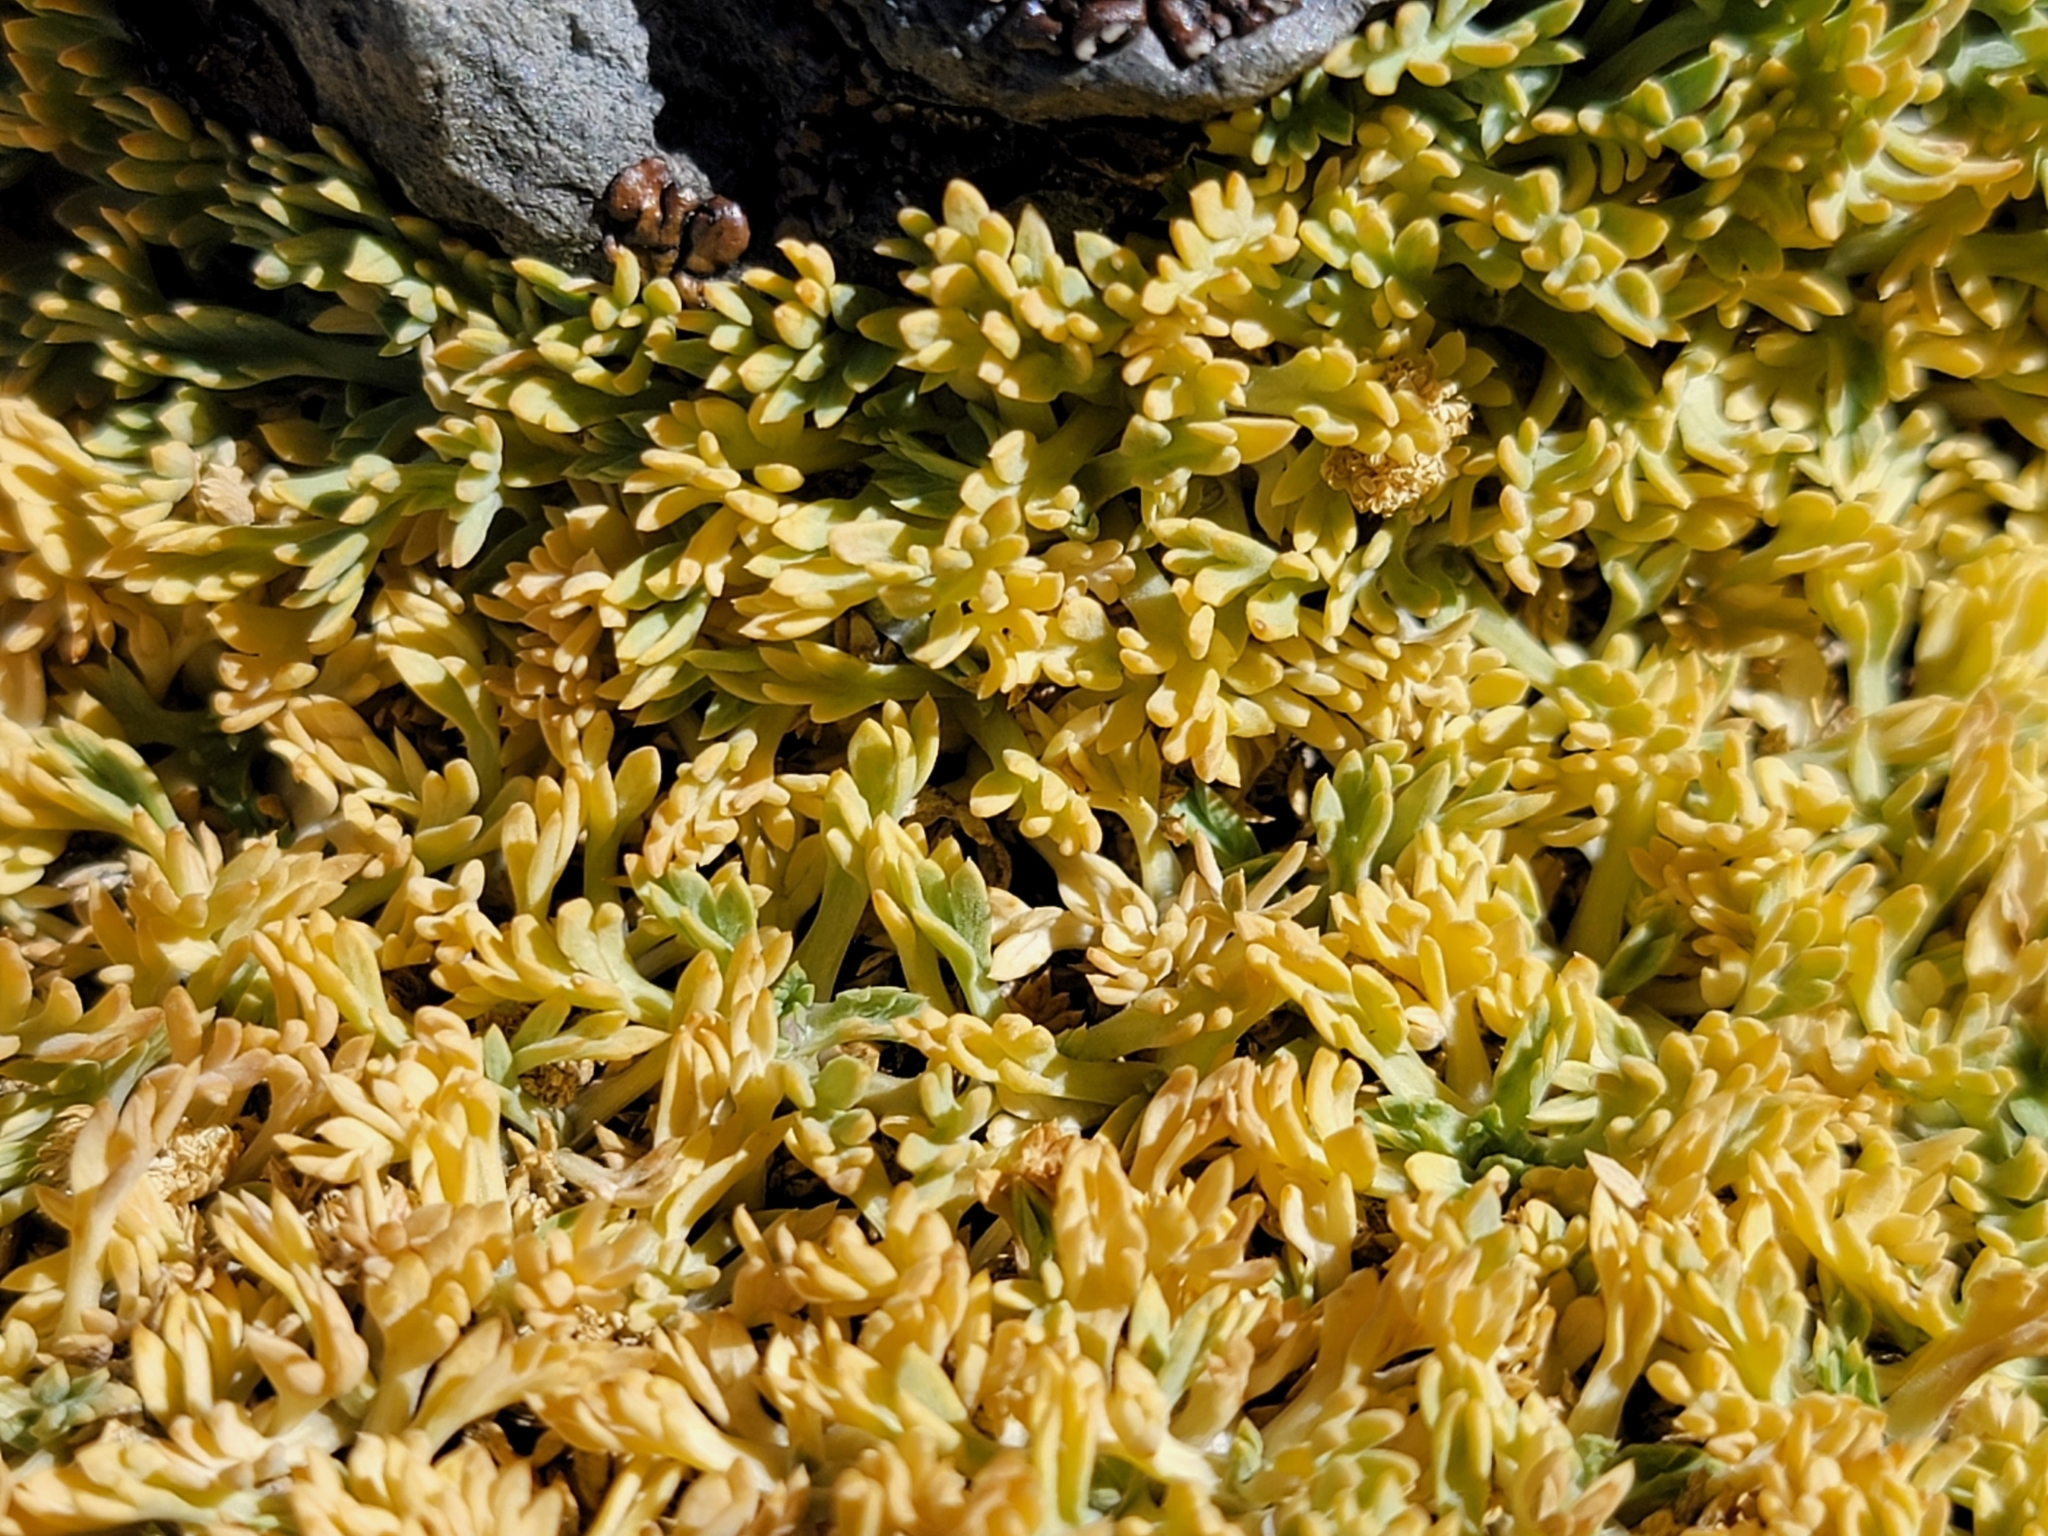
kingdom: Plantae
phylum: Tracheophyta
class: Magnoliopsida
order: Apiales
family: Apiaceae
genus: Podistera
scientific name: Podistera nevadensis
